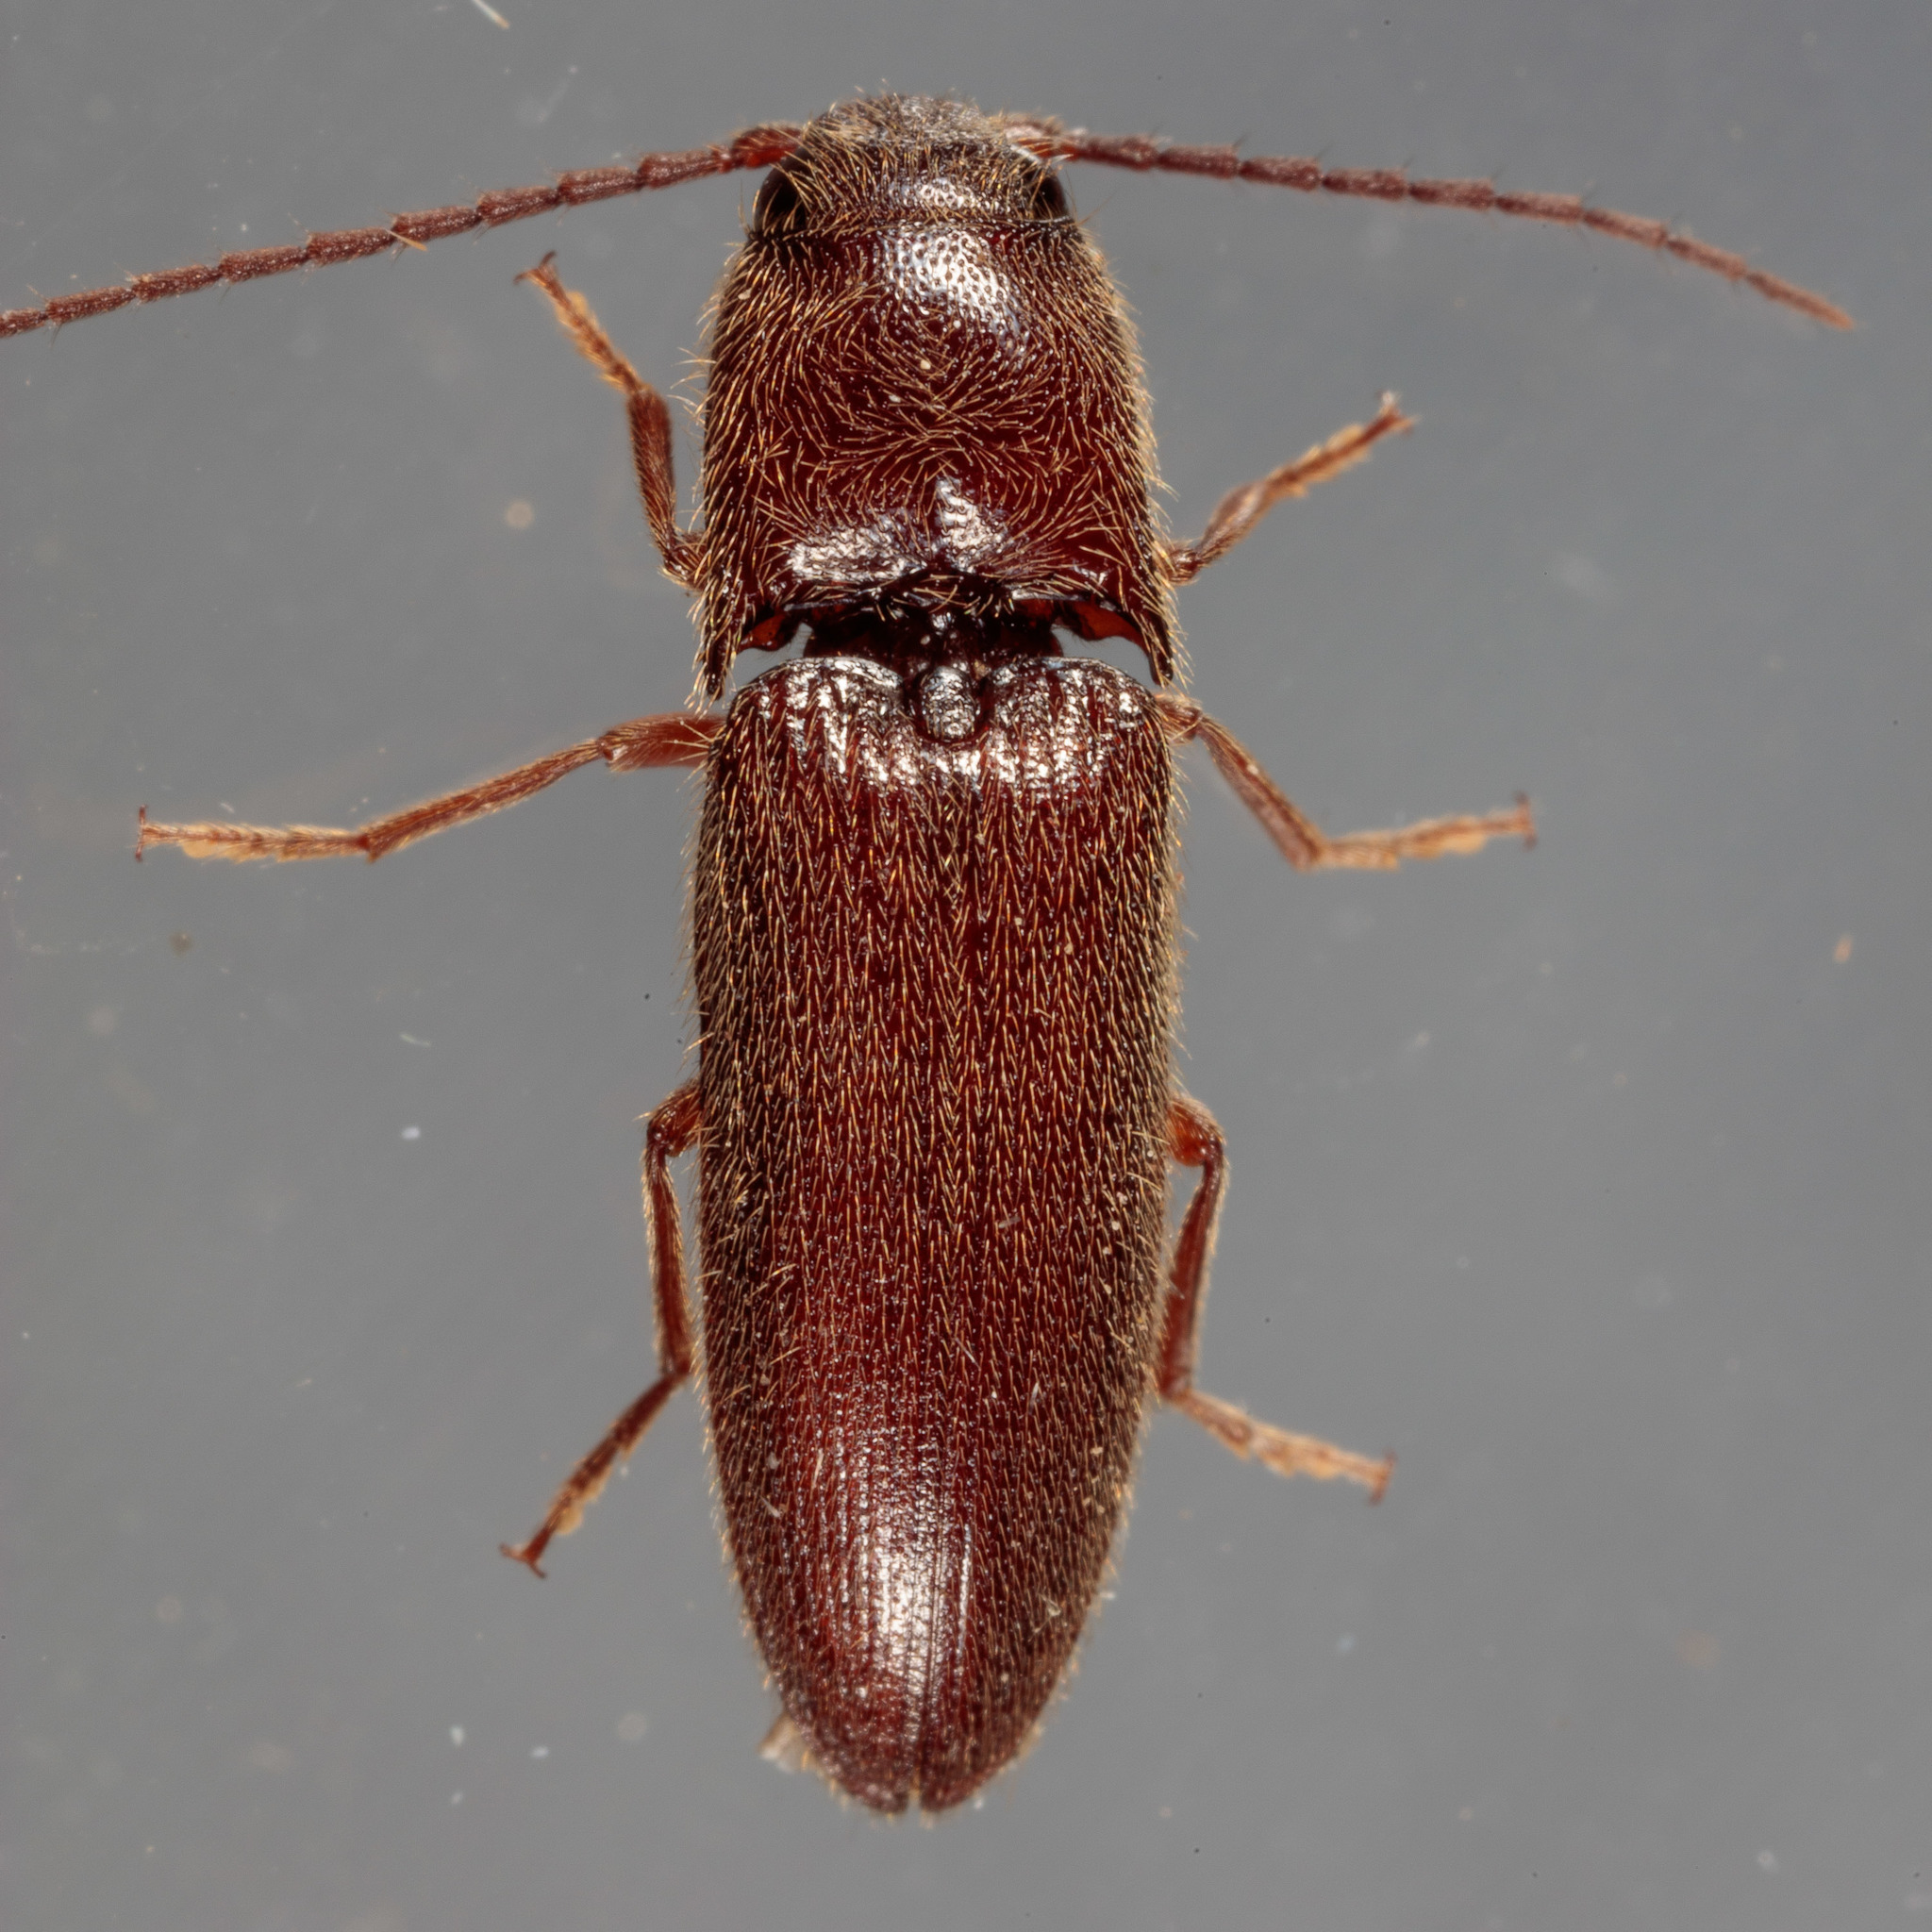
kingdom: Animalia
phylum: Arthropoda
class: Insecta
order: Coleoptera
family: Elateridae
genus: Dipropus
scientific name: Dipropus
